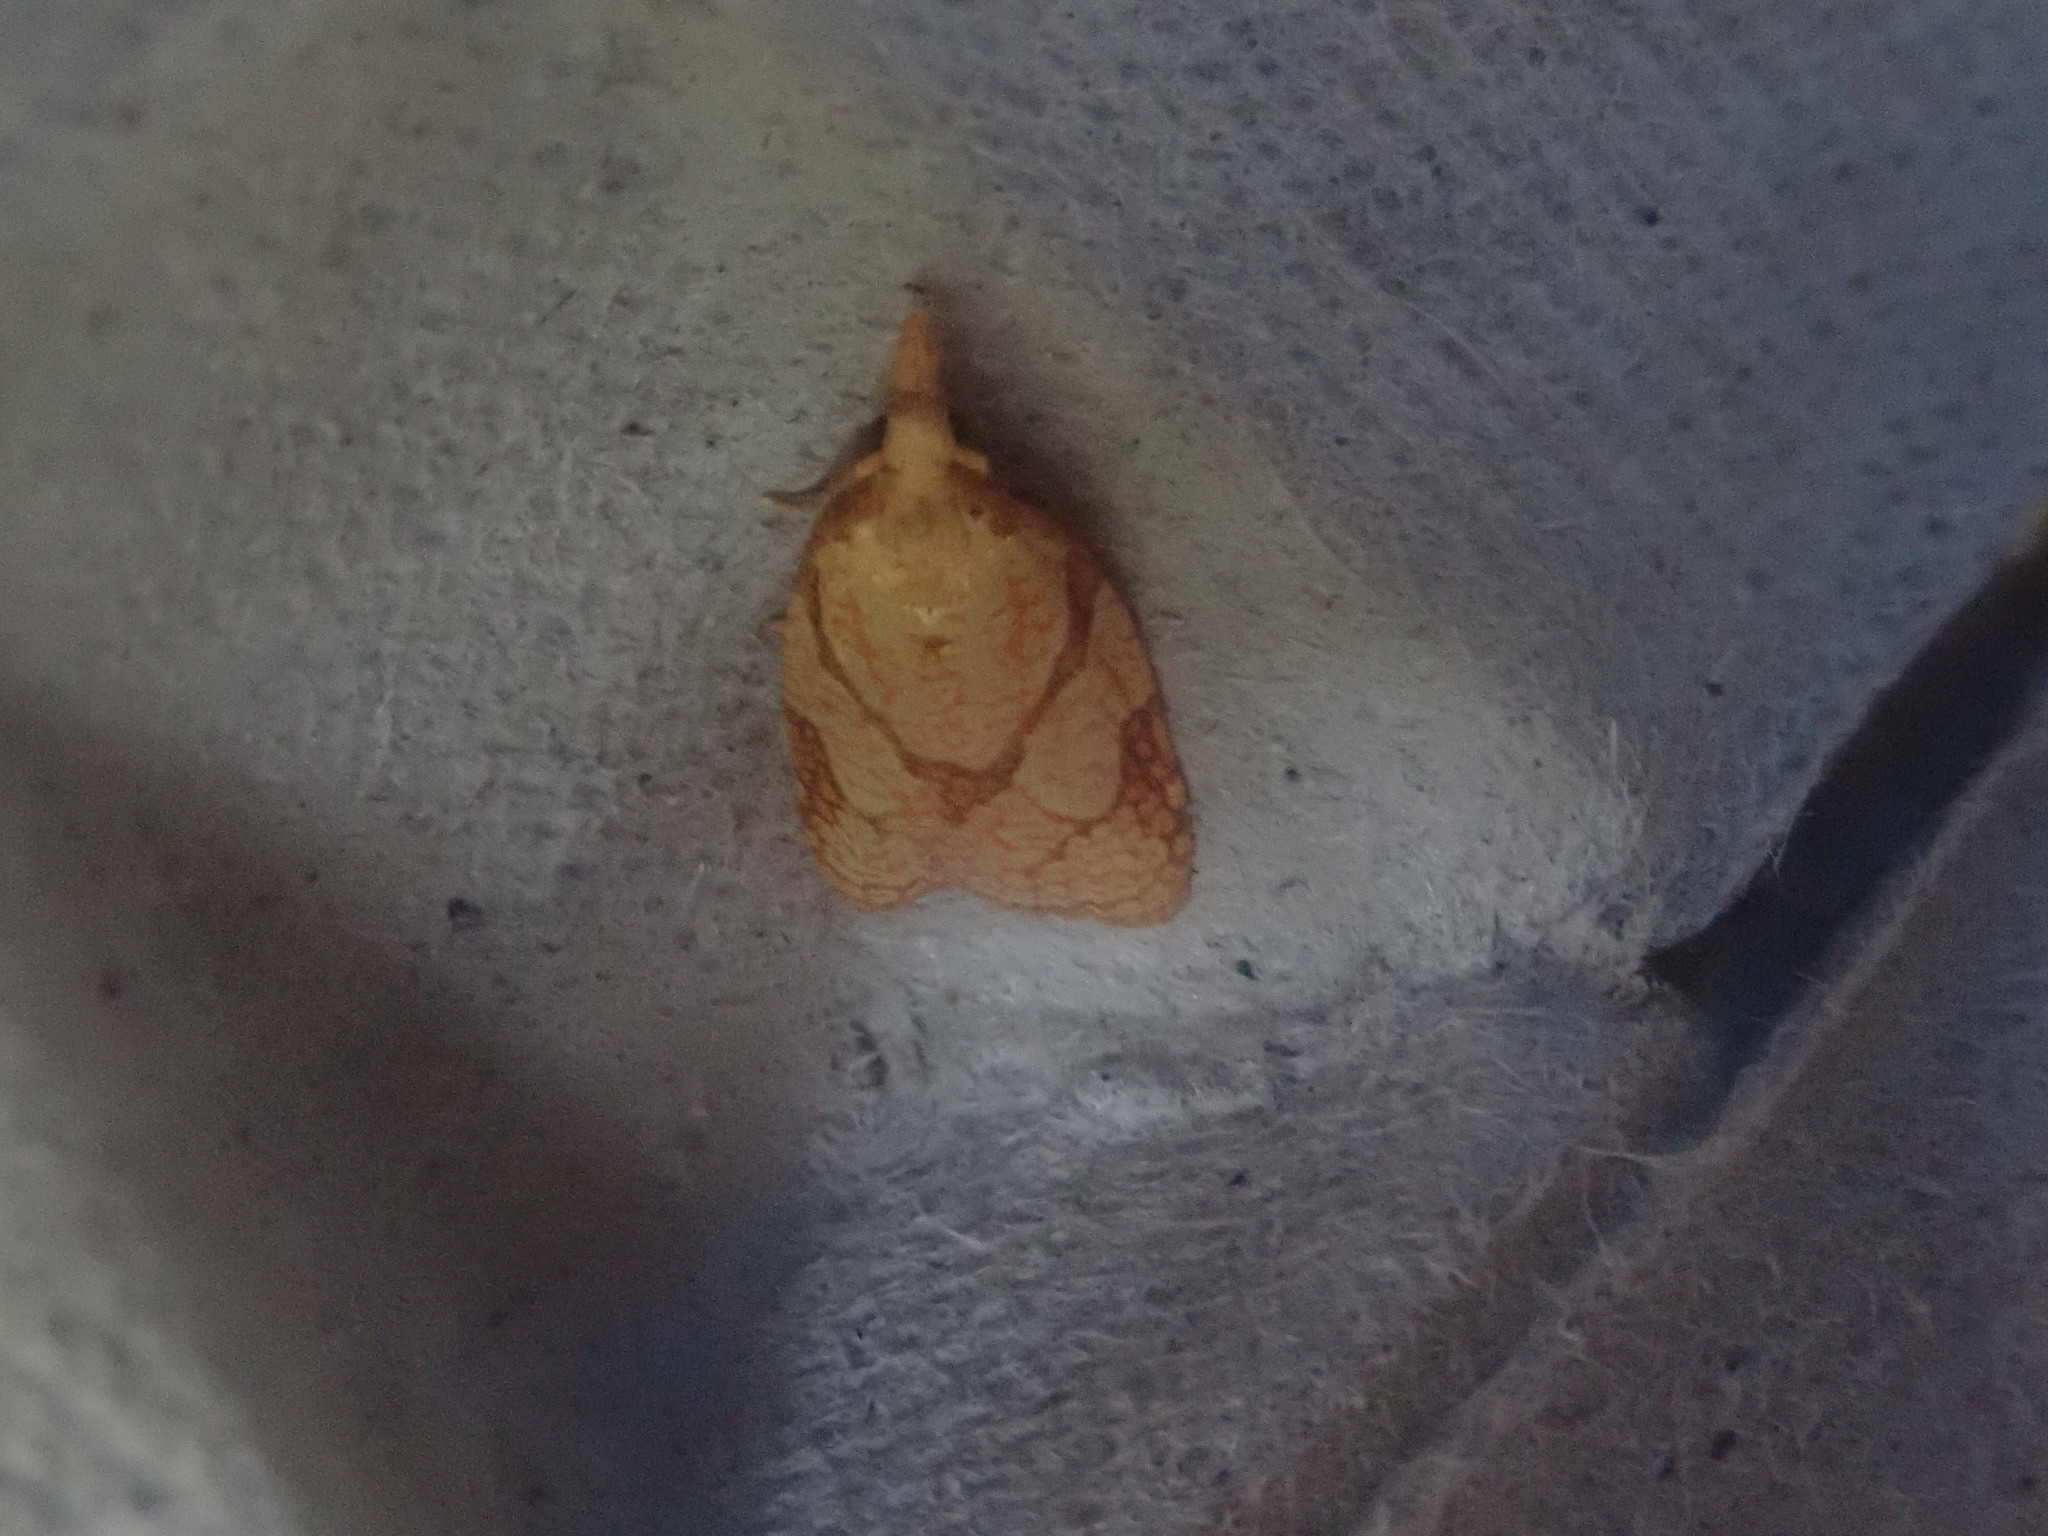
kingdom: Animalia
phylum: Arthropoda
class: Insecta
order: Lepidoptera
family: Tortricidae
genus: Cenopis
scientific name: Cenopis reticulatana
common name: Reticulated fruitworm moth
